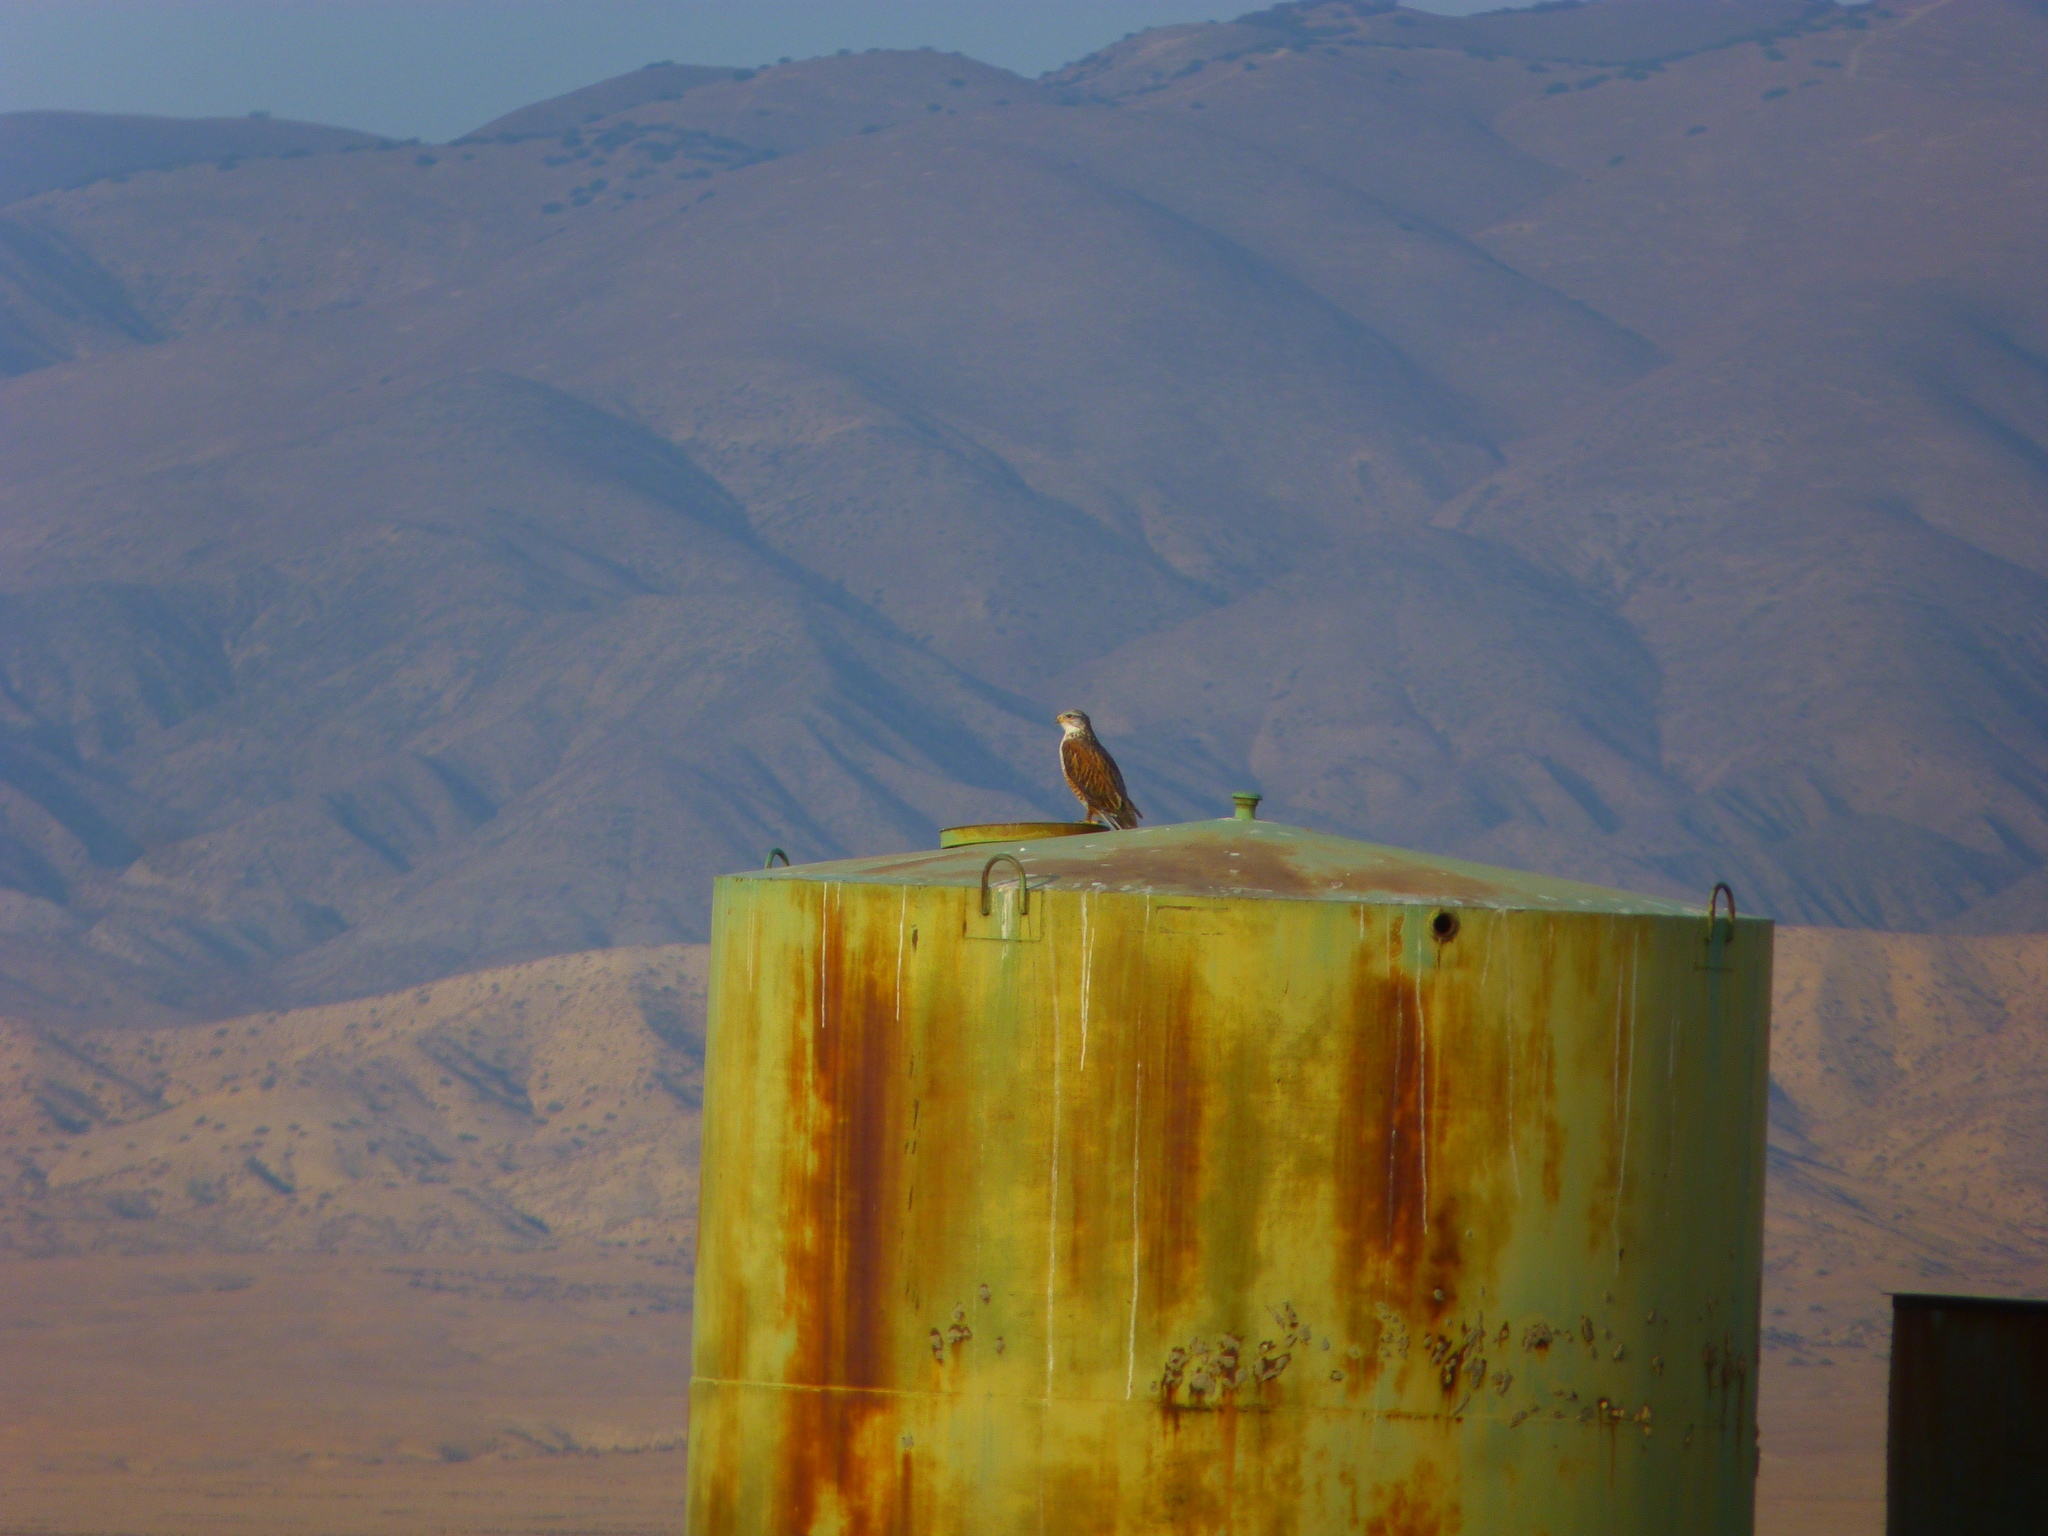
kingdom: Animalia
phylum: Chordata
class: Aves
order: Accipitriformes
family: Accipitridae
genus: Buteo
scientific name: Buteo regalis
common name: Ferruginous hawk
